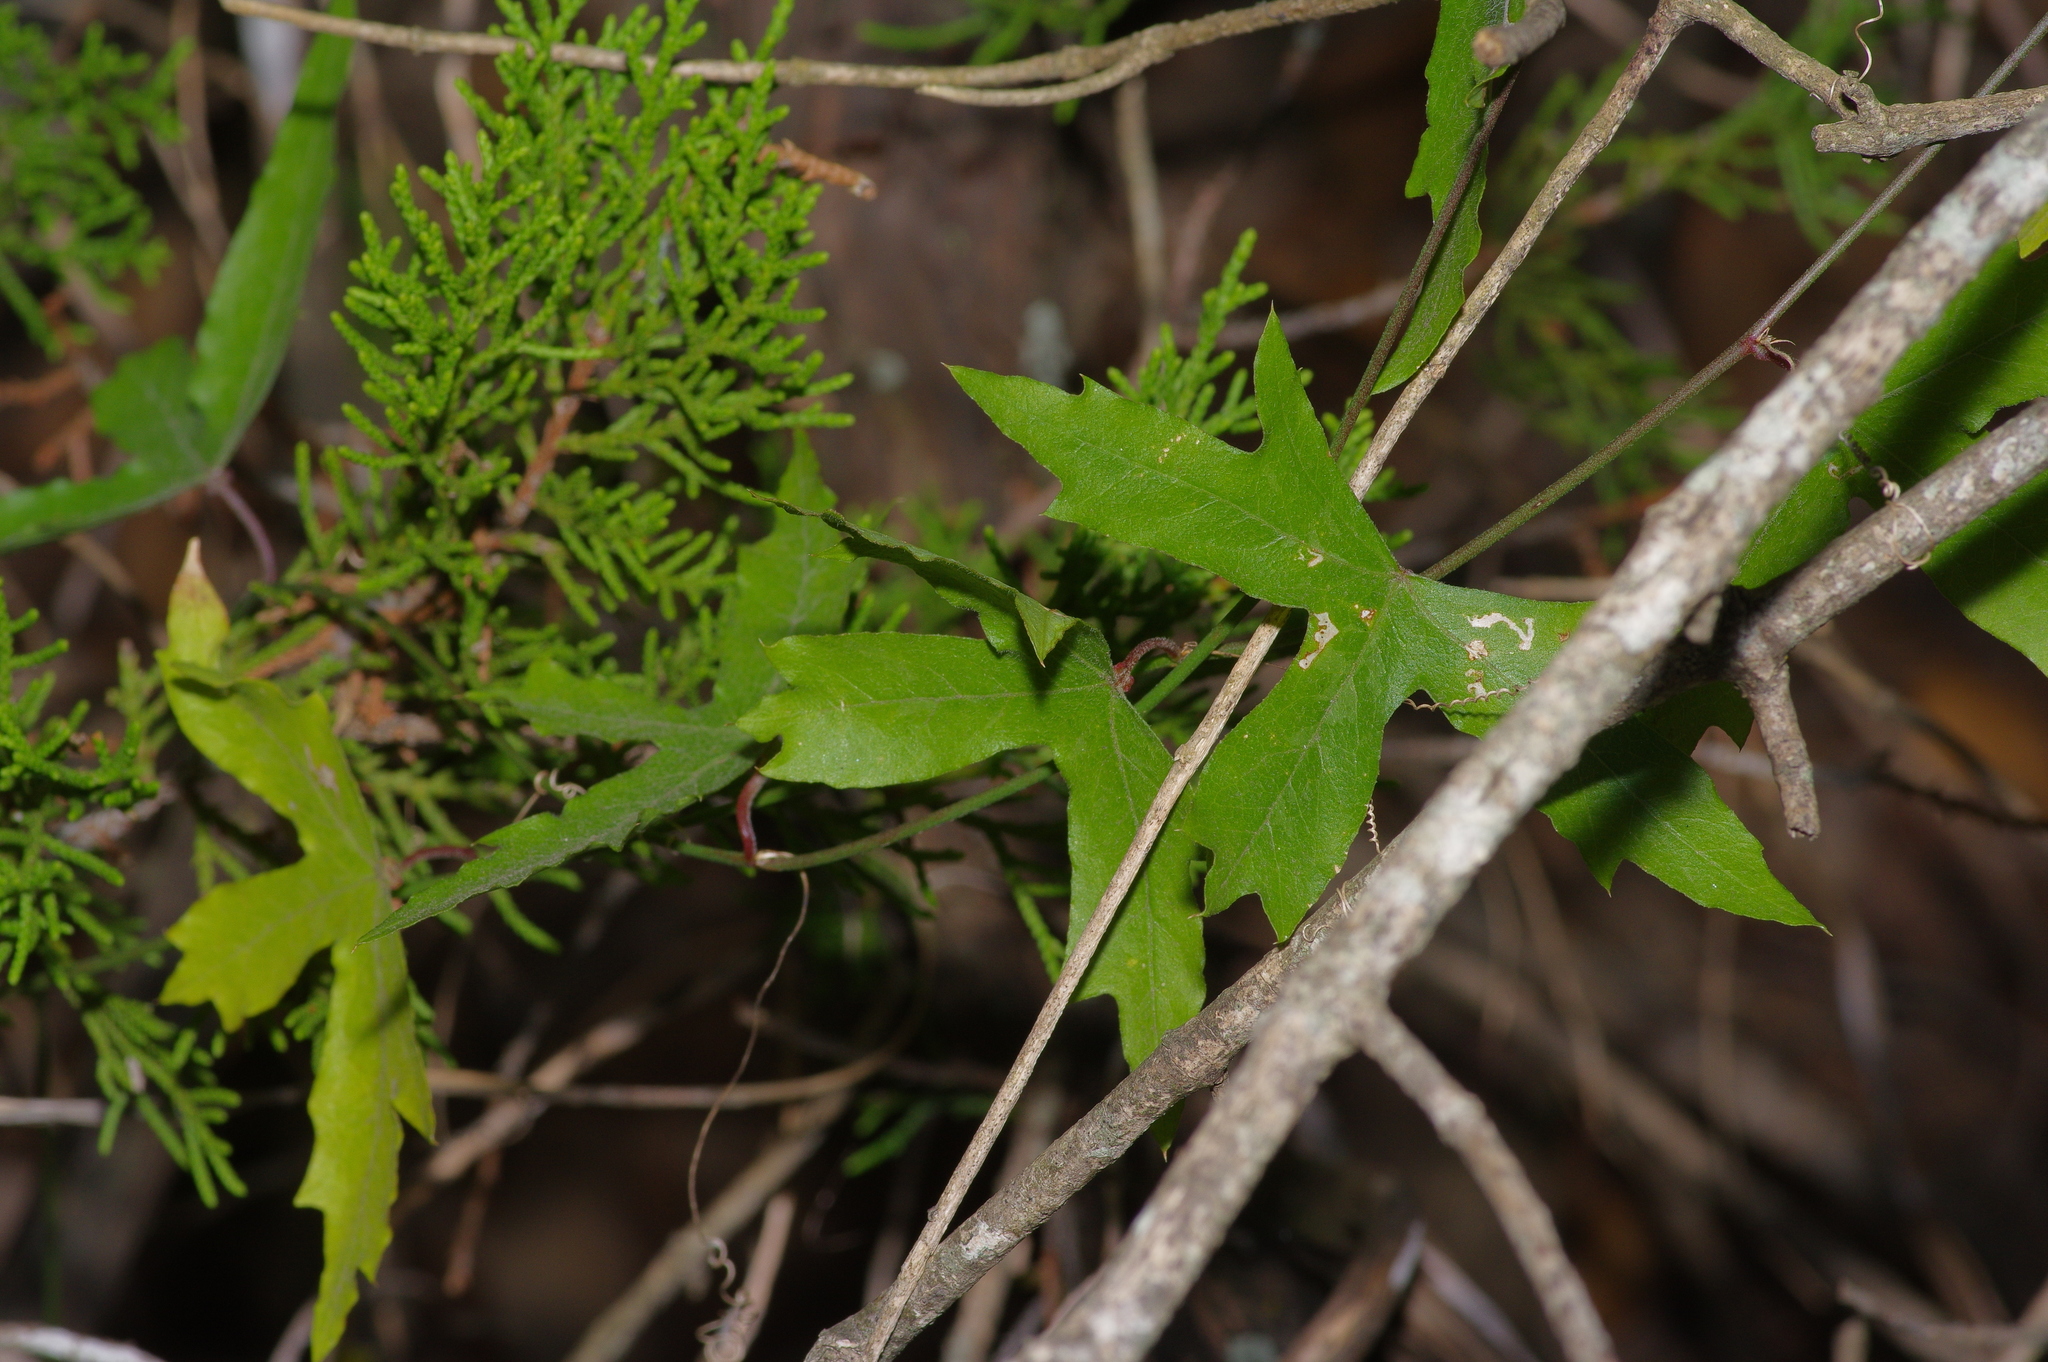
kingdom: Plantae
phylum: Tracheophyta
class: Magnoliopsida
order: Malpighiales
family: Passifloraceae
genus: Passiflora
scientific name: Passiflora tenuiloba
